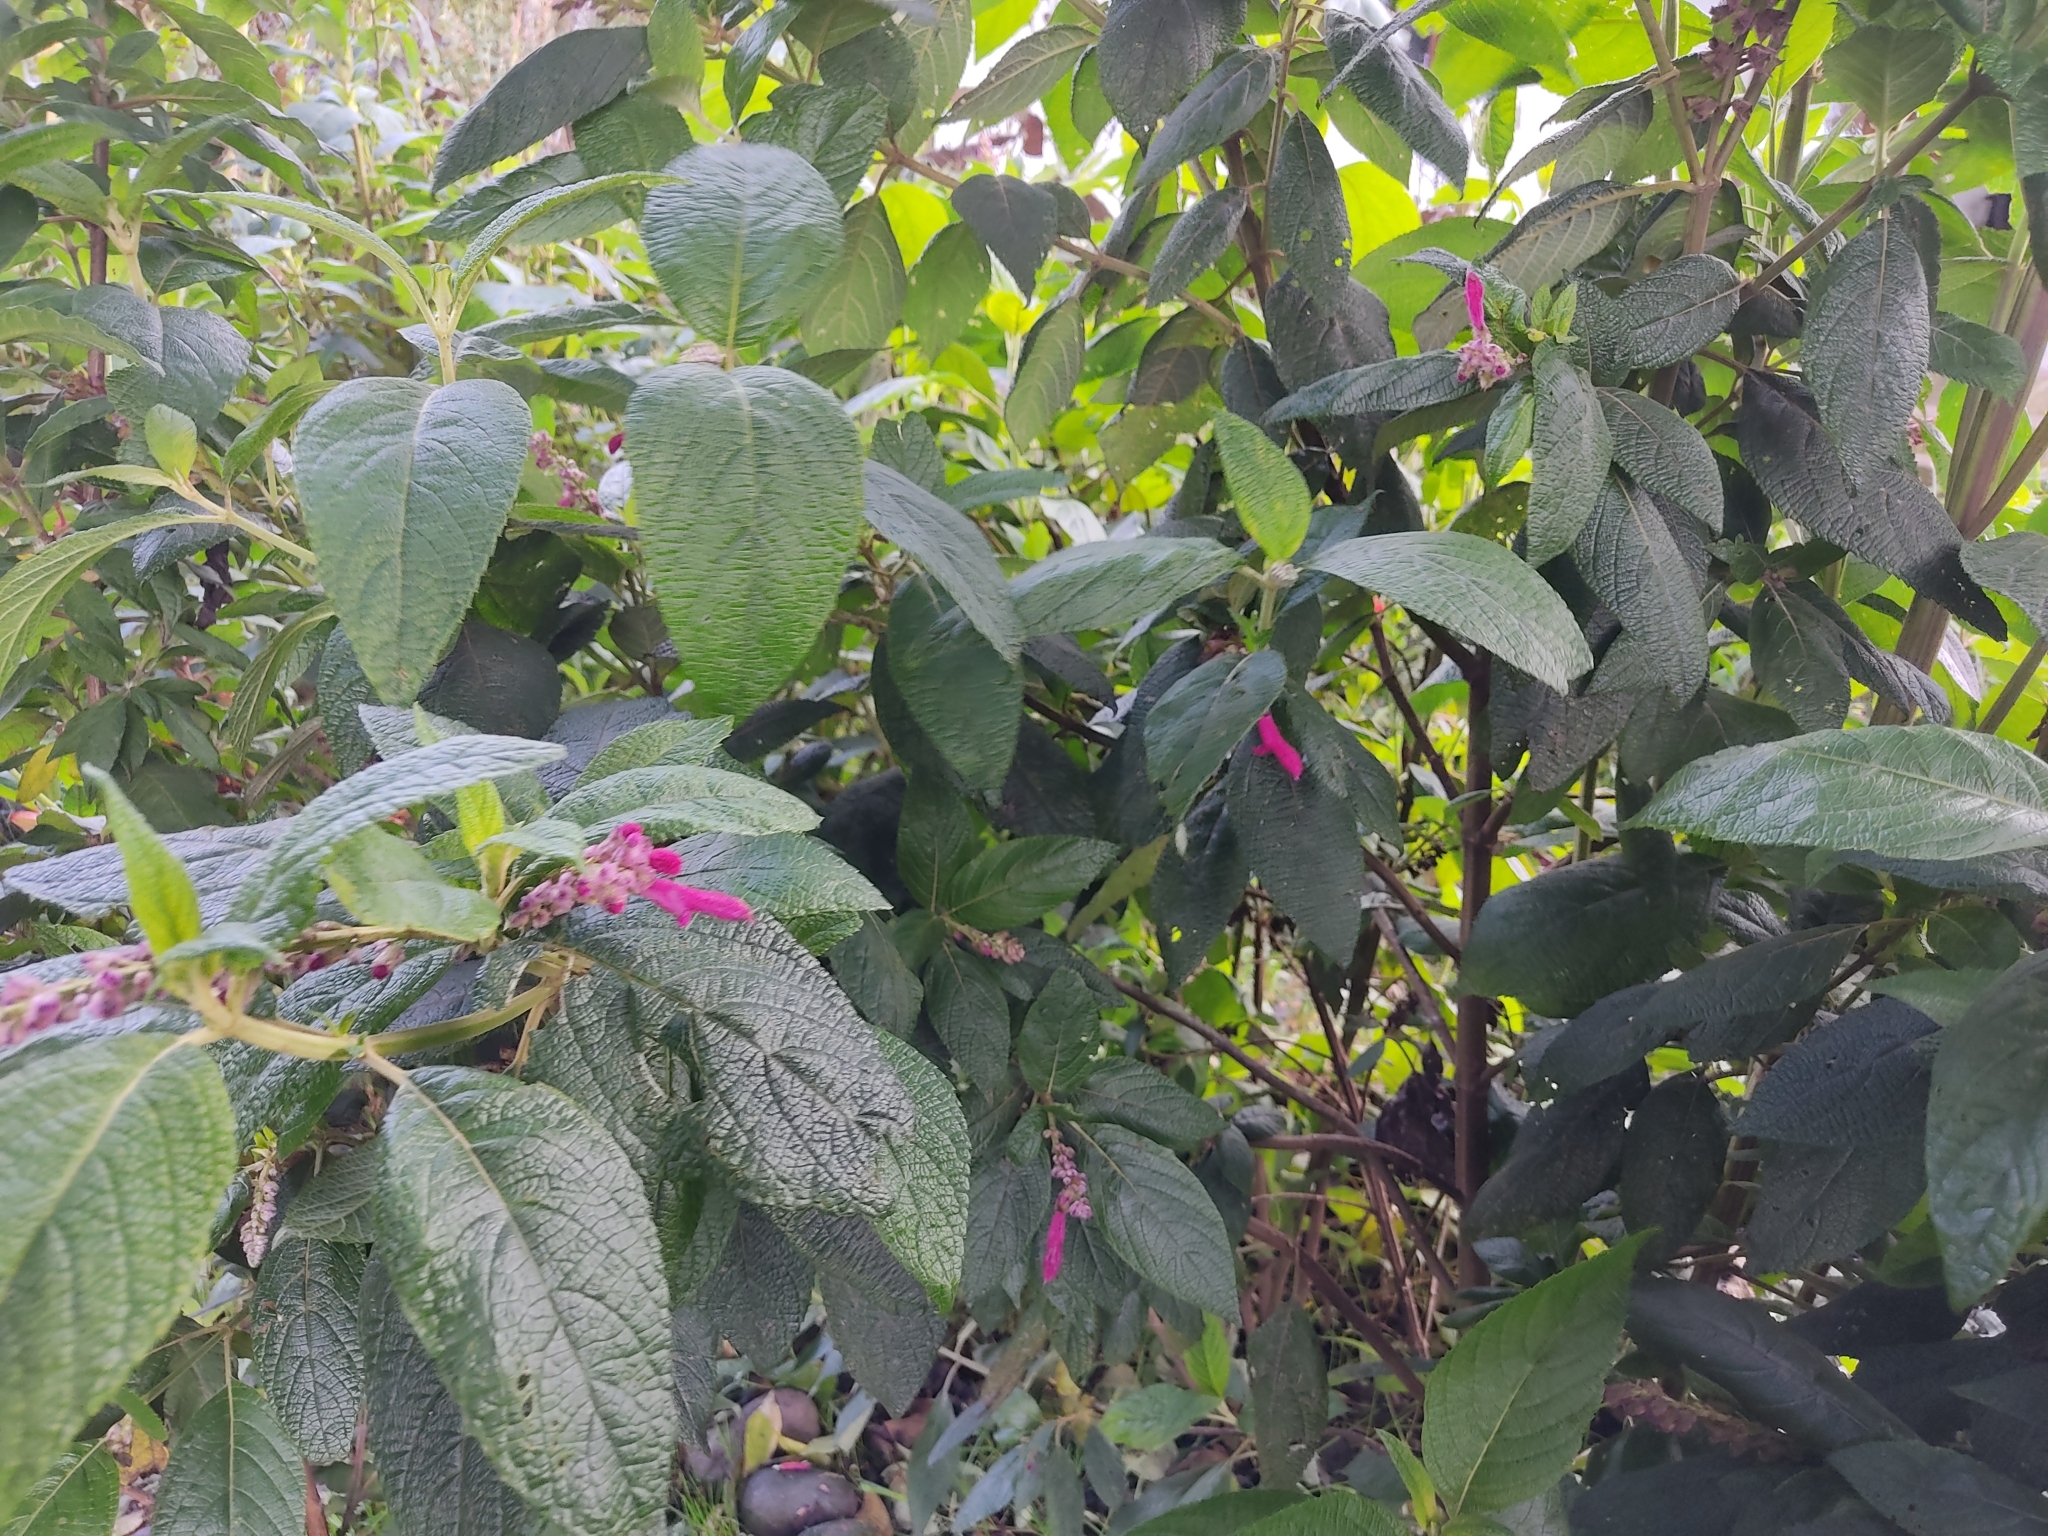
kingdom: Plantae
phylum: Tracheophyta
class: Magnoliopsida
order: Lamiales
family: Lamiaceae
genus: Salvia
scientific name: Salvia tortuosa
